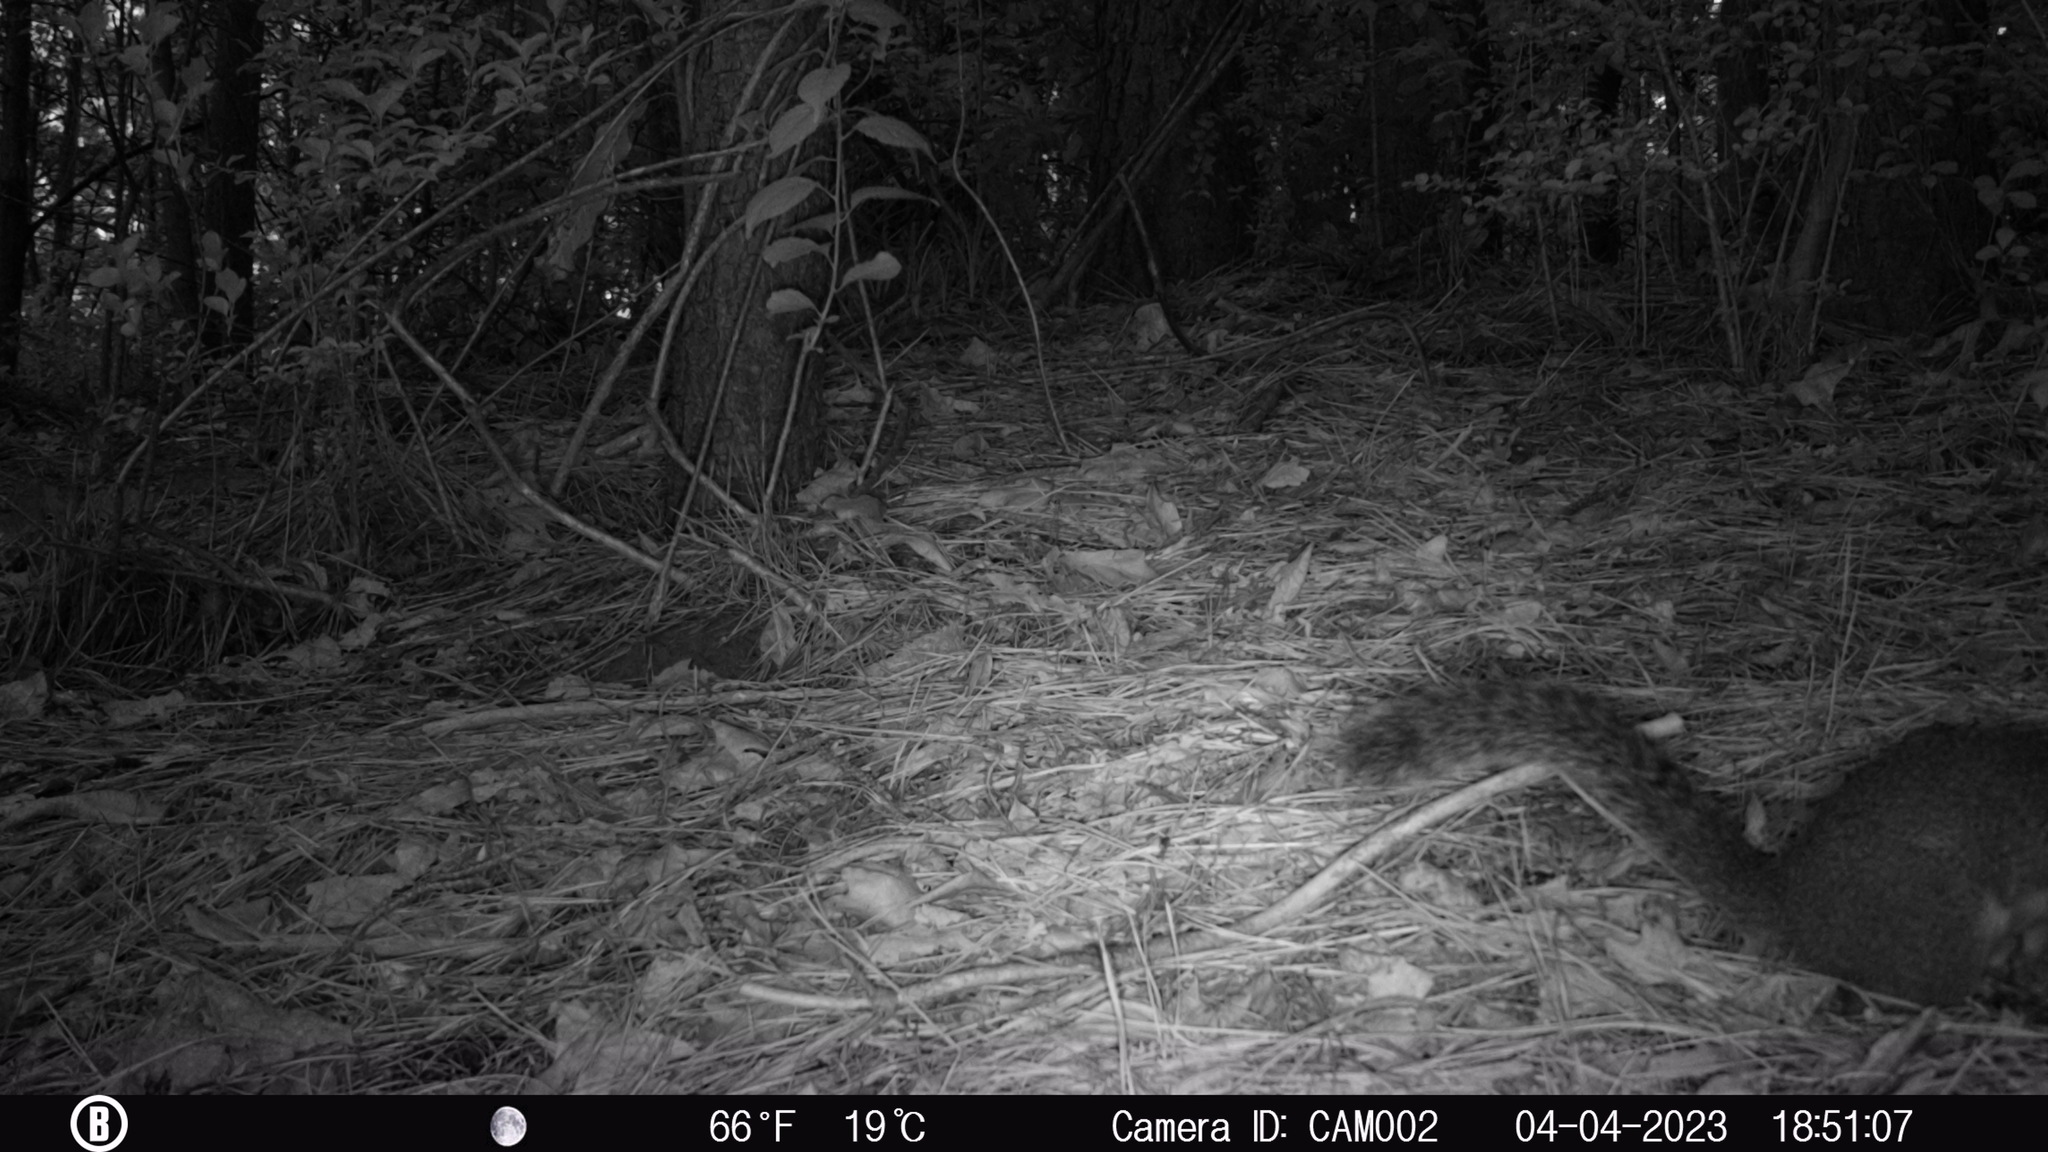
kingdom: Animalia
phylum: Chordata
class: Mammalia
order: Rodentia
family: Sciuridae
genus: Sciurus
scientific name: Sciurus carolinensis
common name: Eastern gray squirrel
